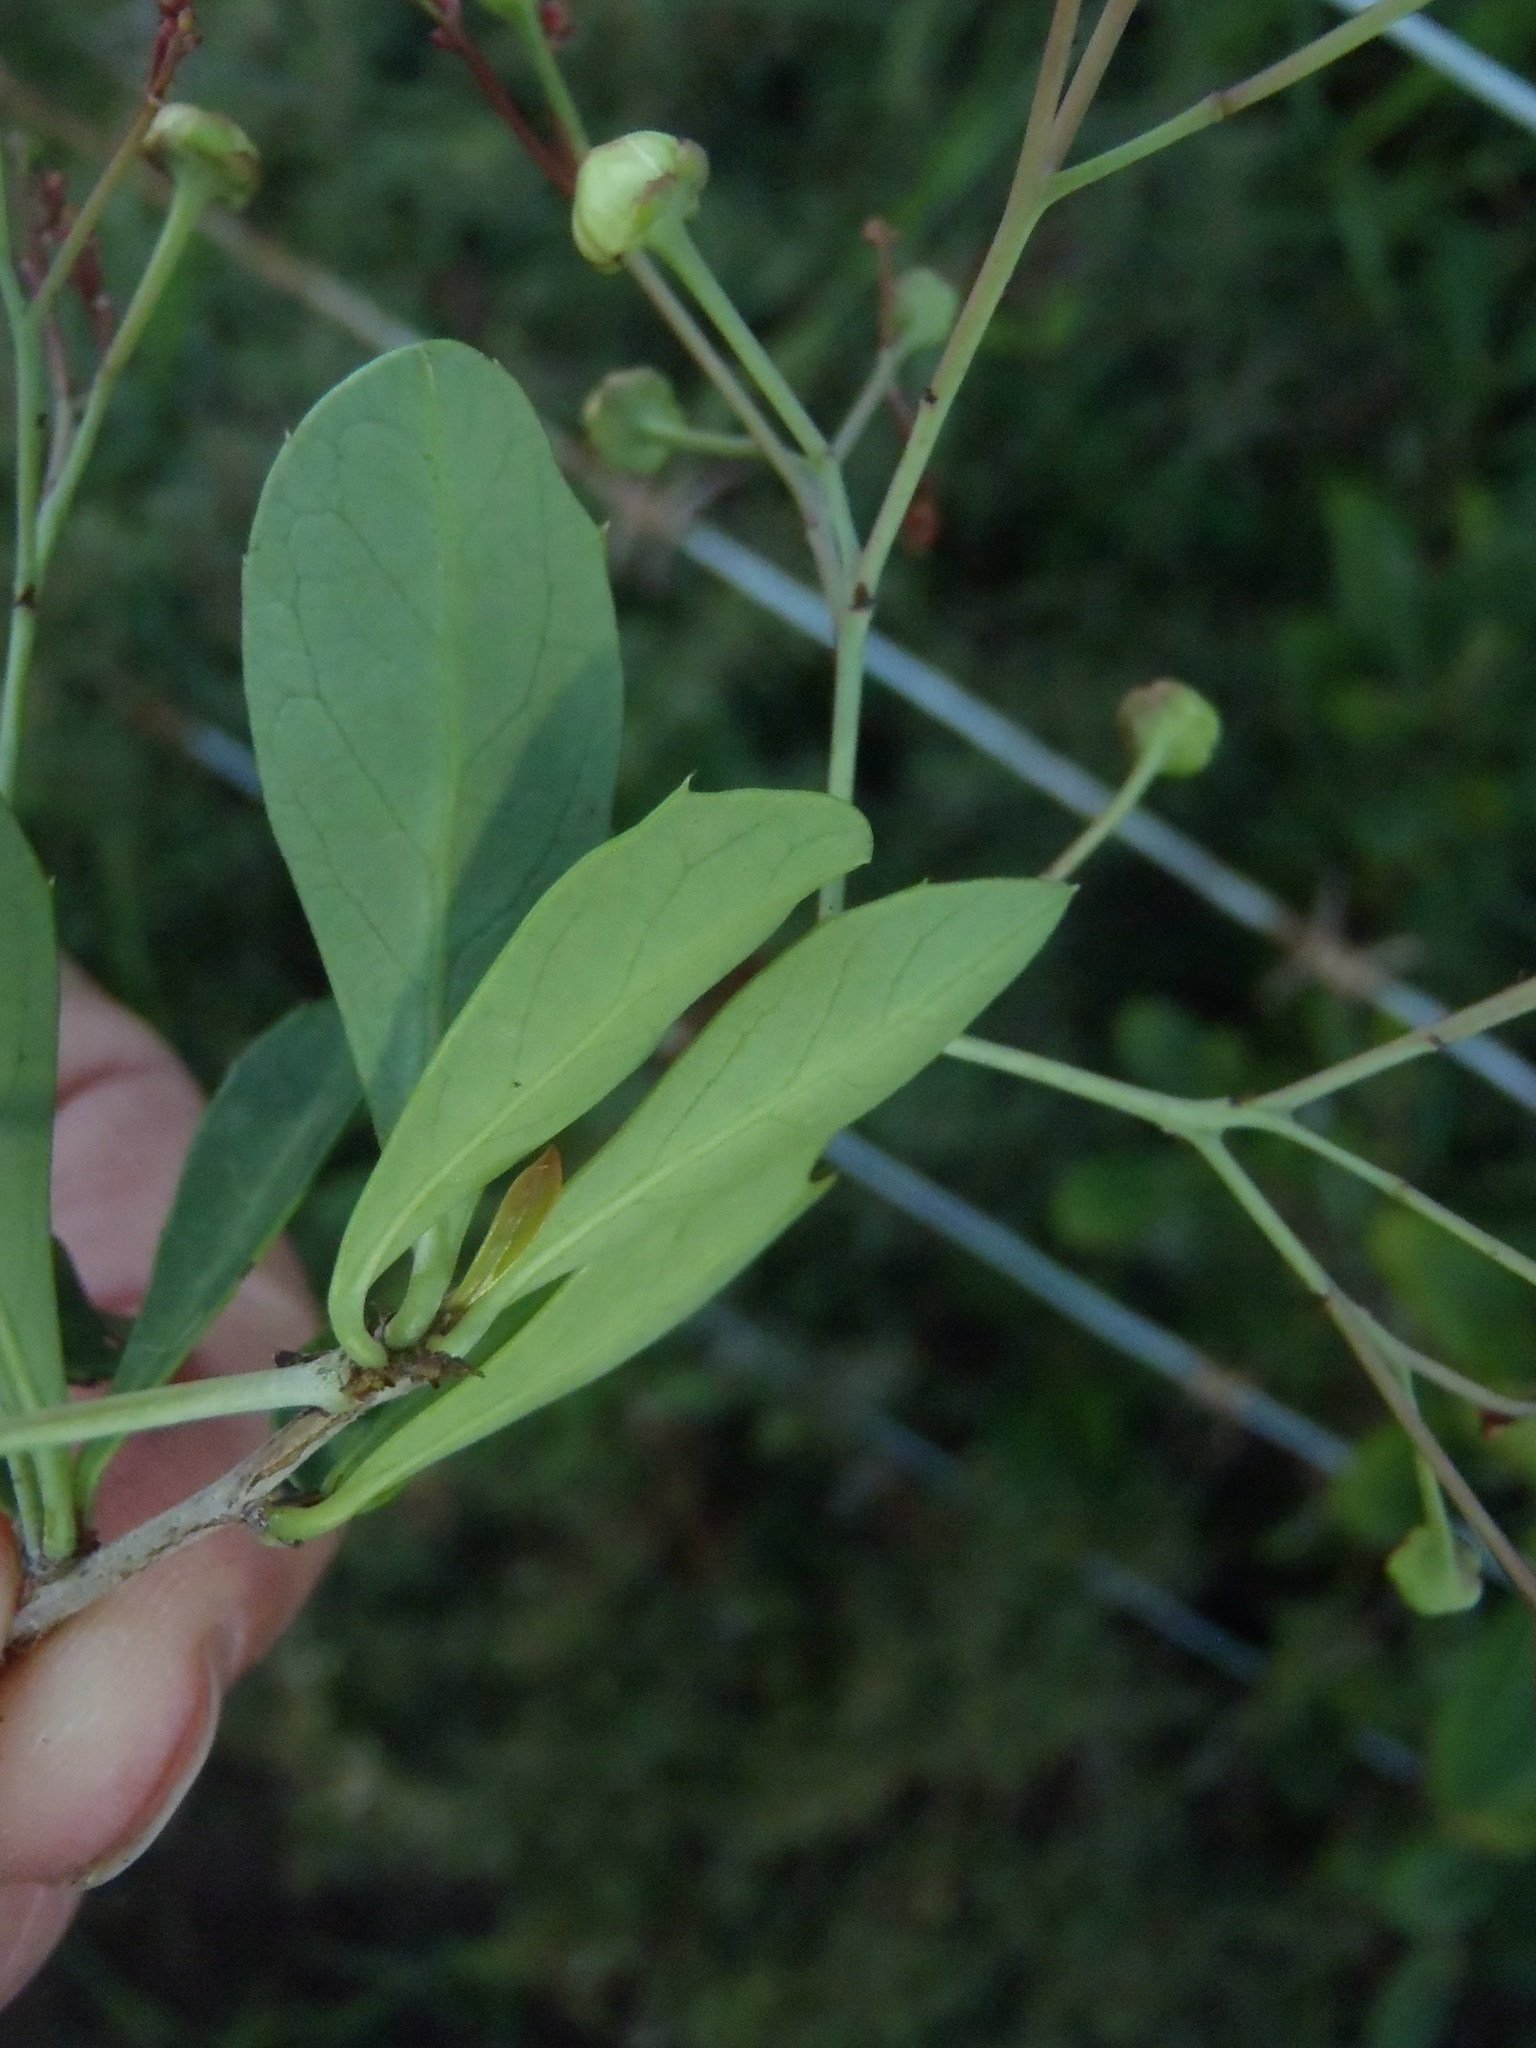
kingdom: Plantae
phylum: Tracheophyta
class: Magnoliopsida
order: Celastrales
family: Celastraceae
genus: Putterlickia
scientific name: Putterlickia pyracantha
